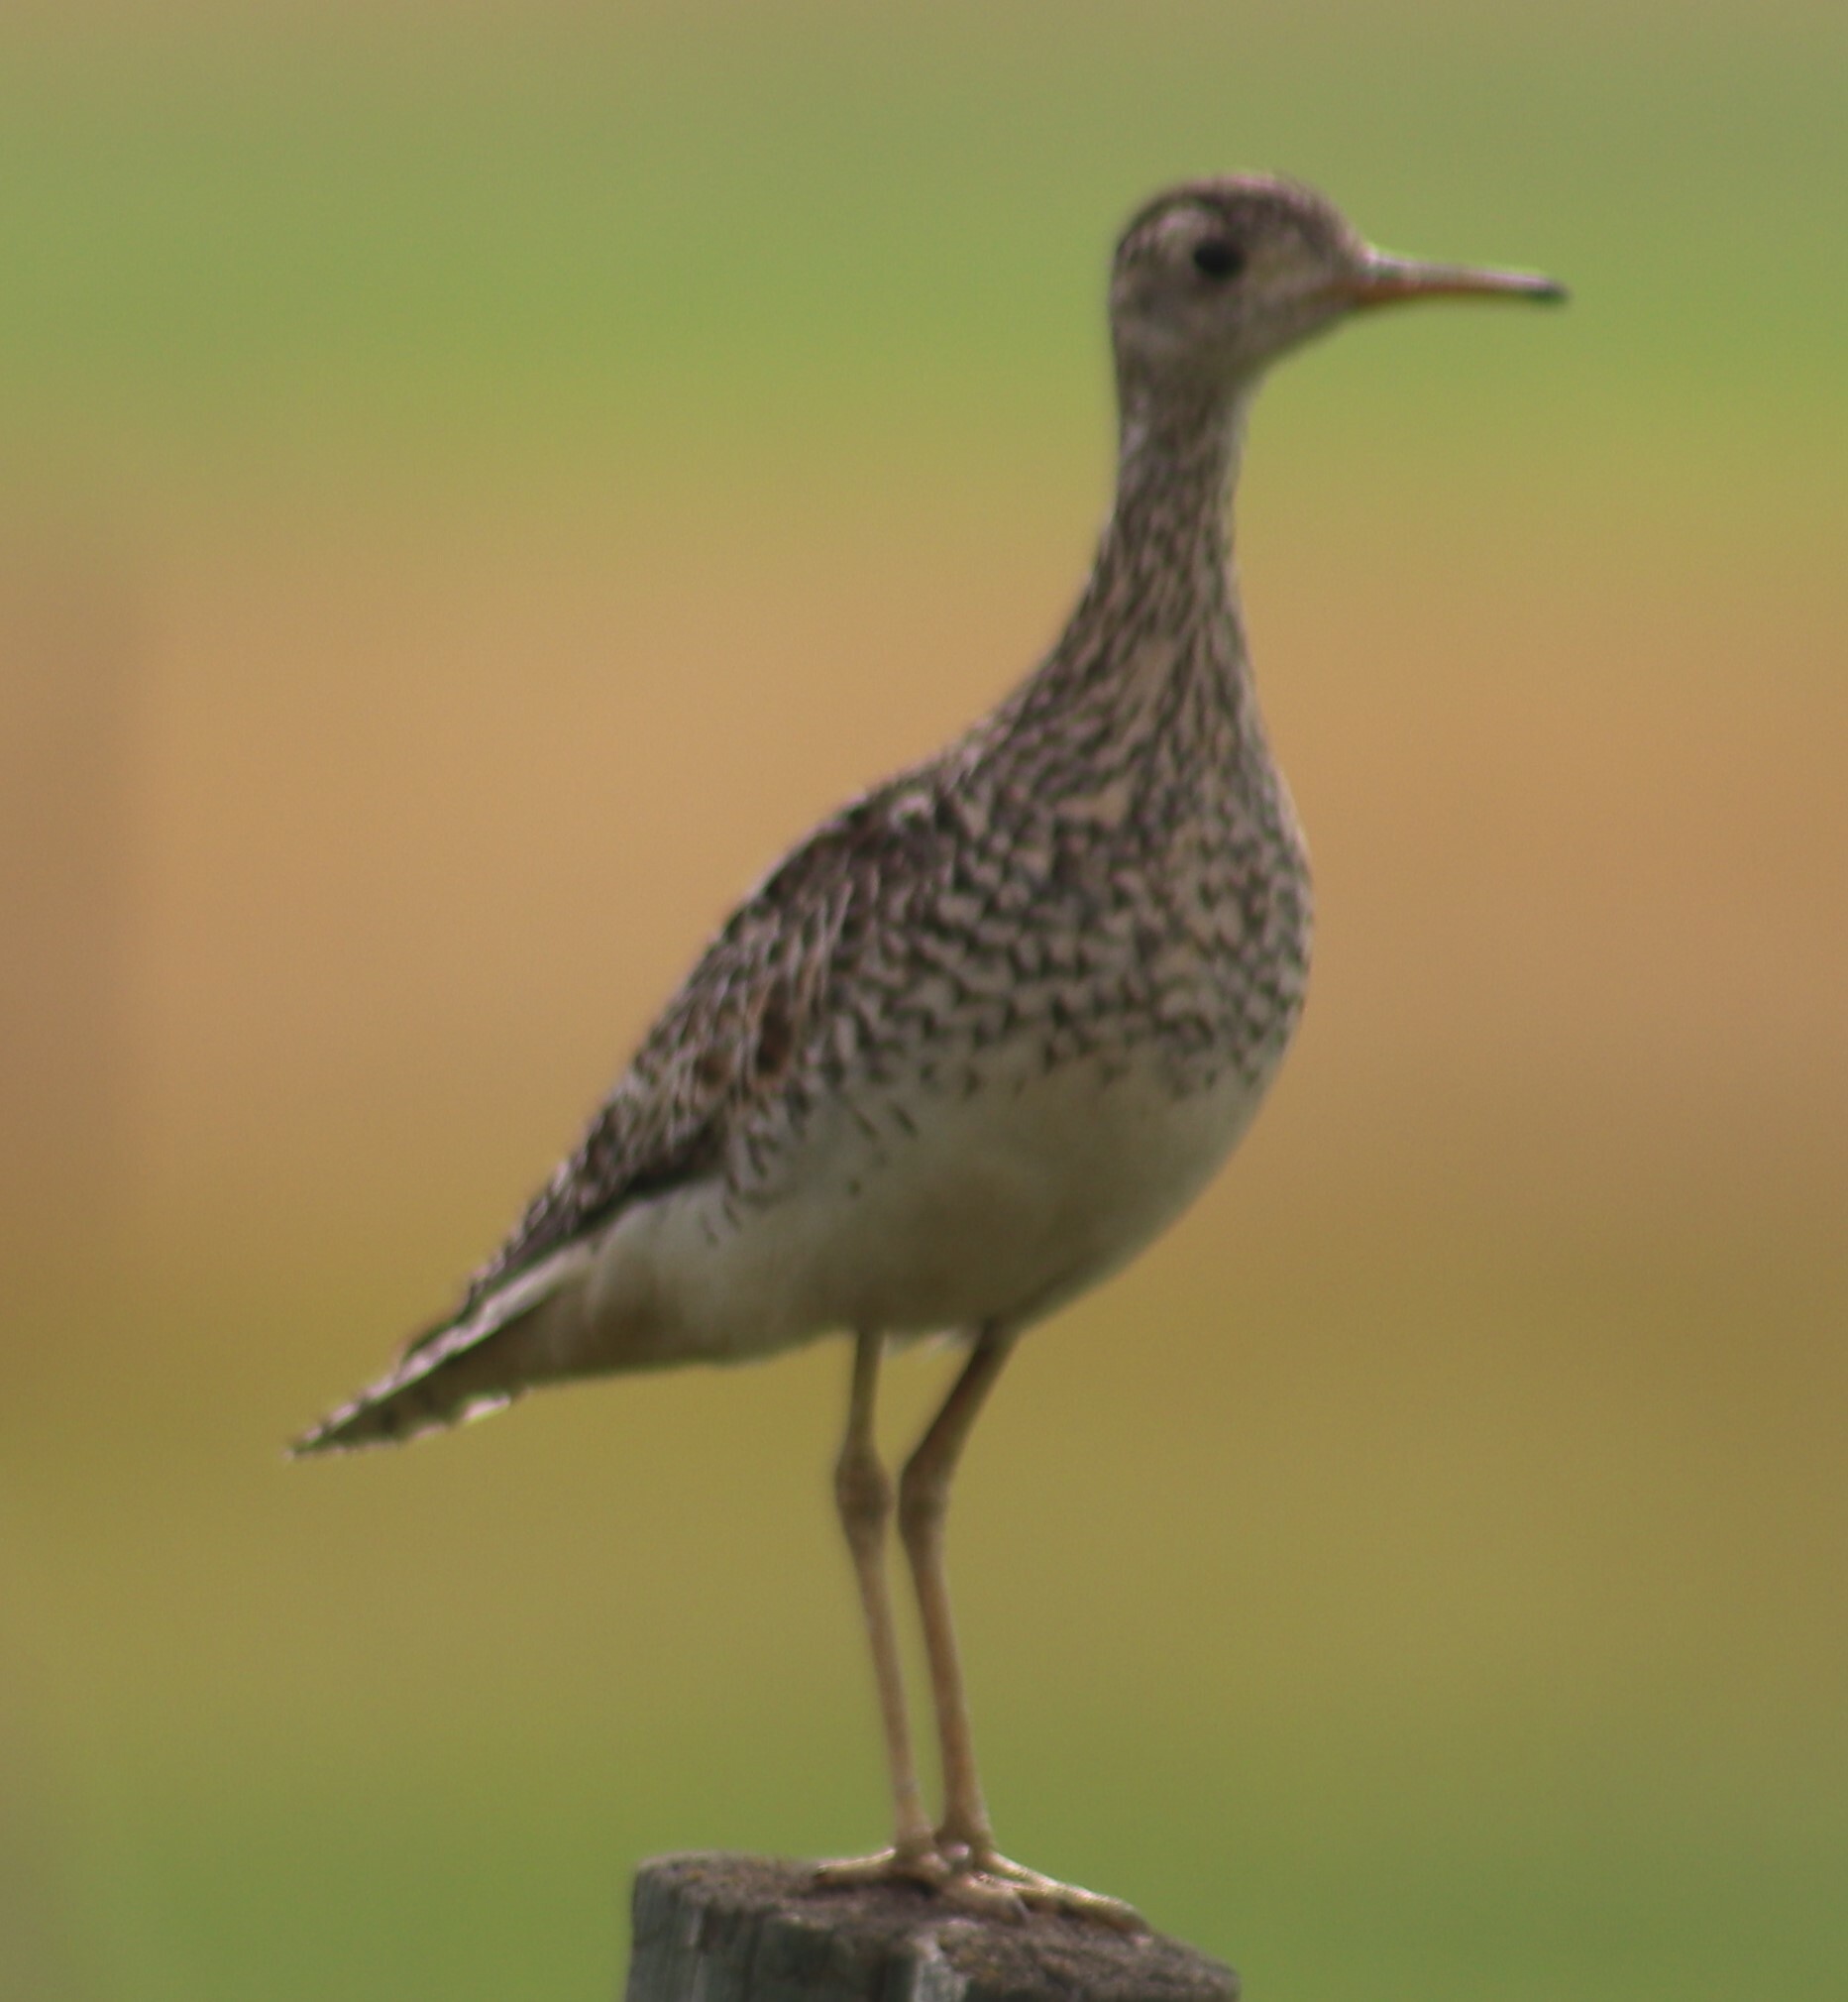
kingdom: Animalia
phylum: Chordata
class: Aves
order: Charadriiformes
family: Scolopacidae
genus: Bartramia
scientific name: Bartramia longicauda
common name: Upland sandpiper
